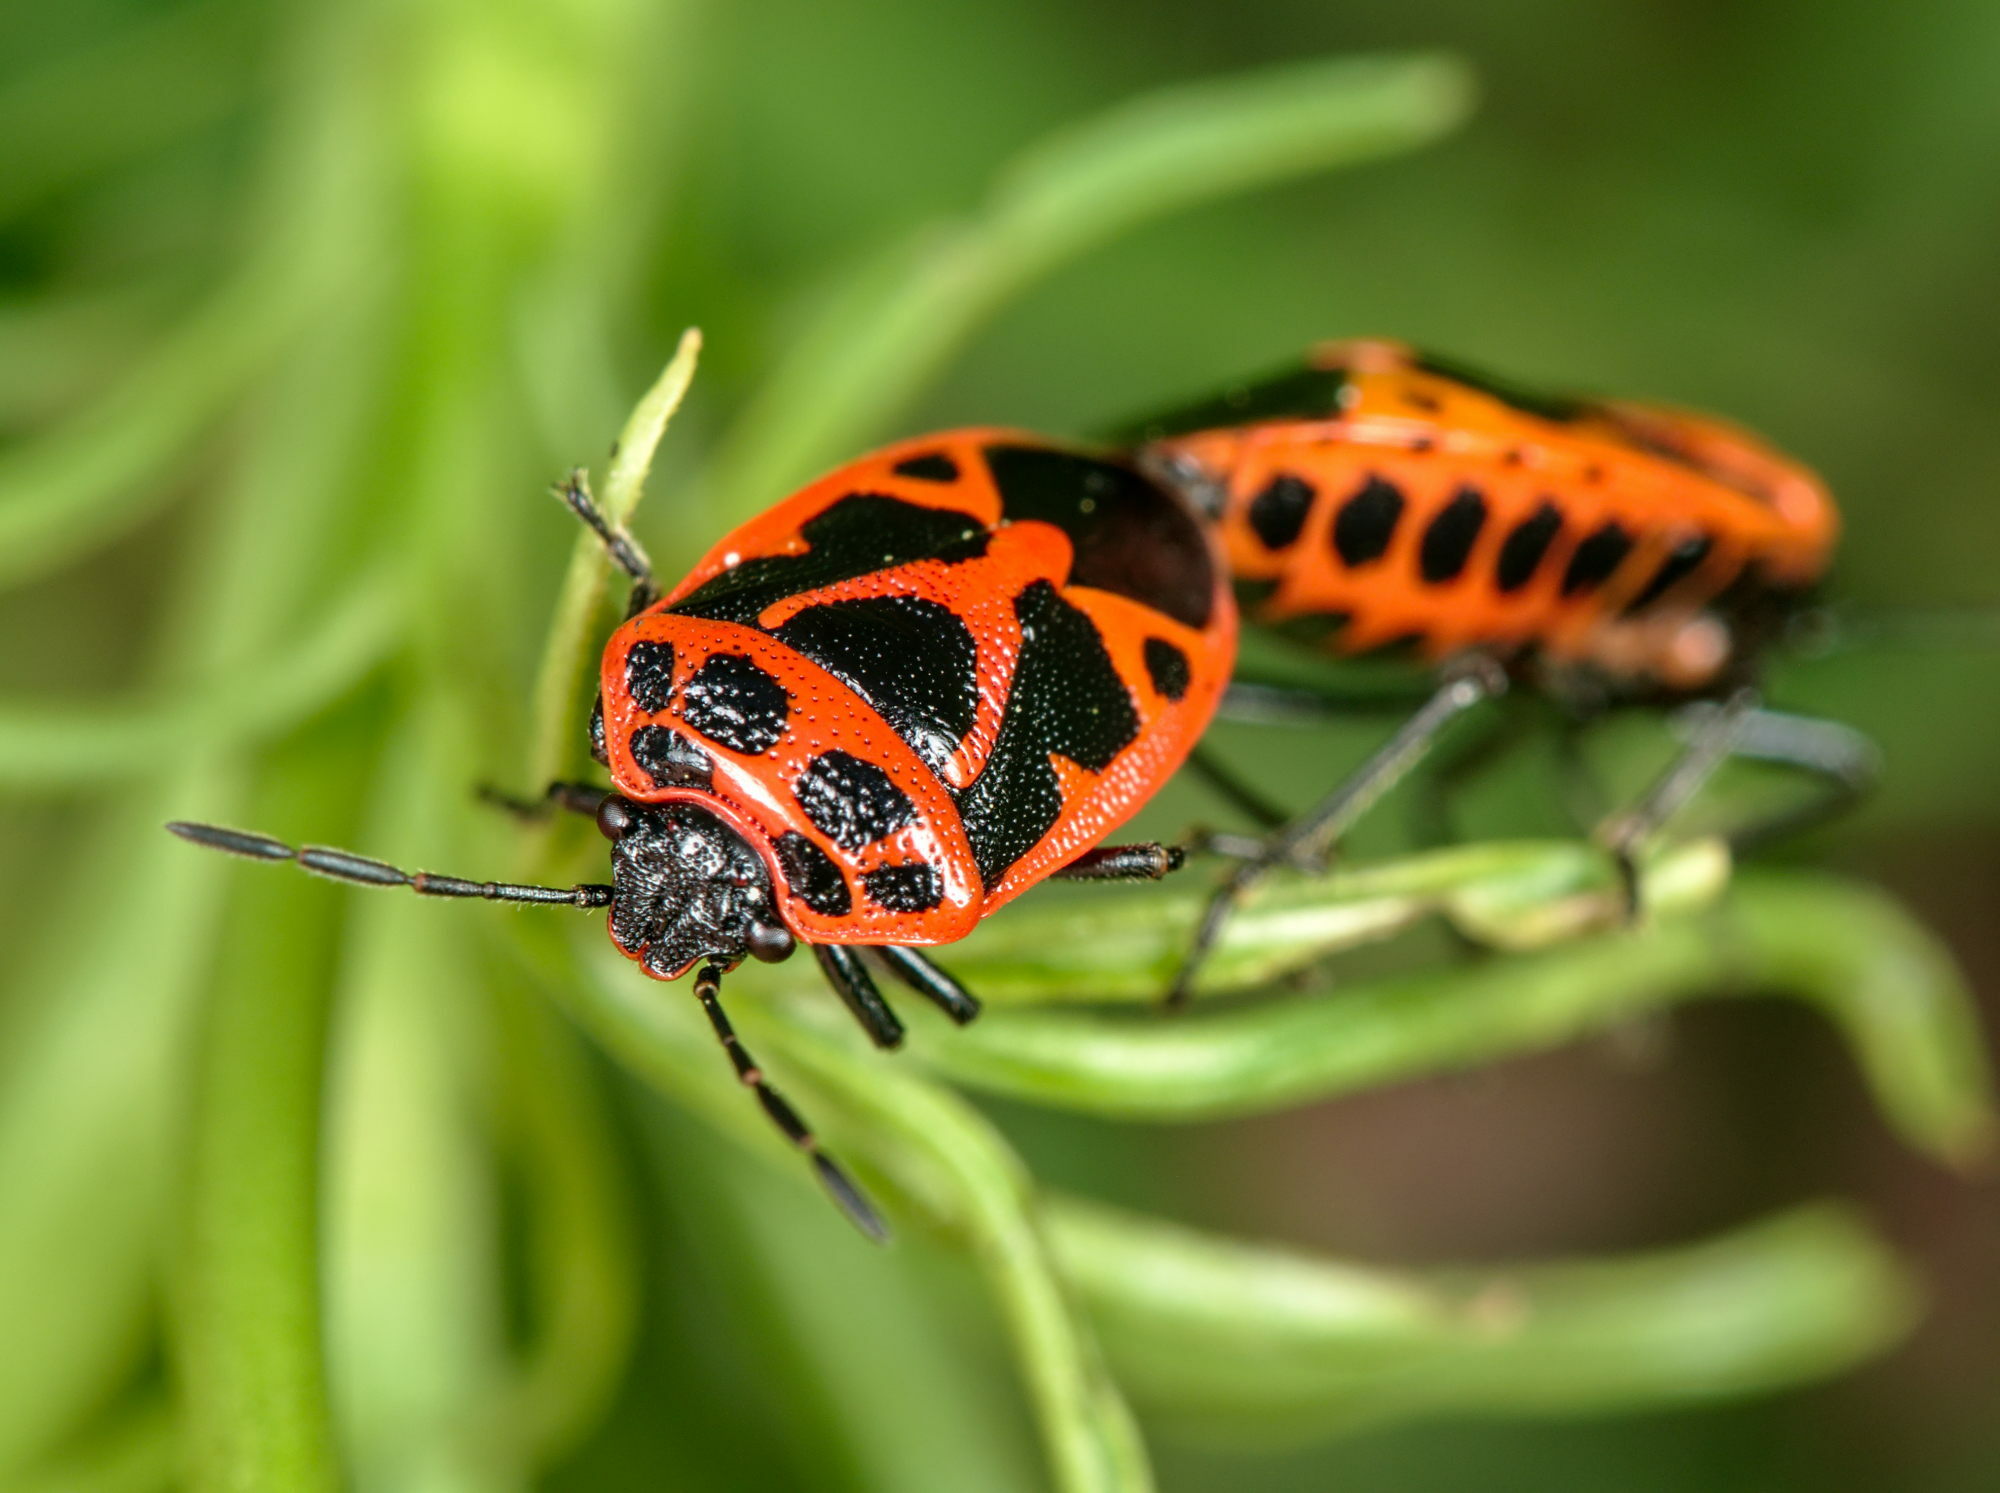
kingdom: Animalia
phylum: Arthropoda
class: Insecta
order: Hemiptera
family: Pentatomidae
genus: Eurydema
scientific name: Eurydema dominulus
